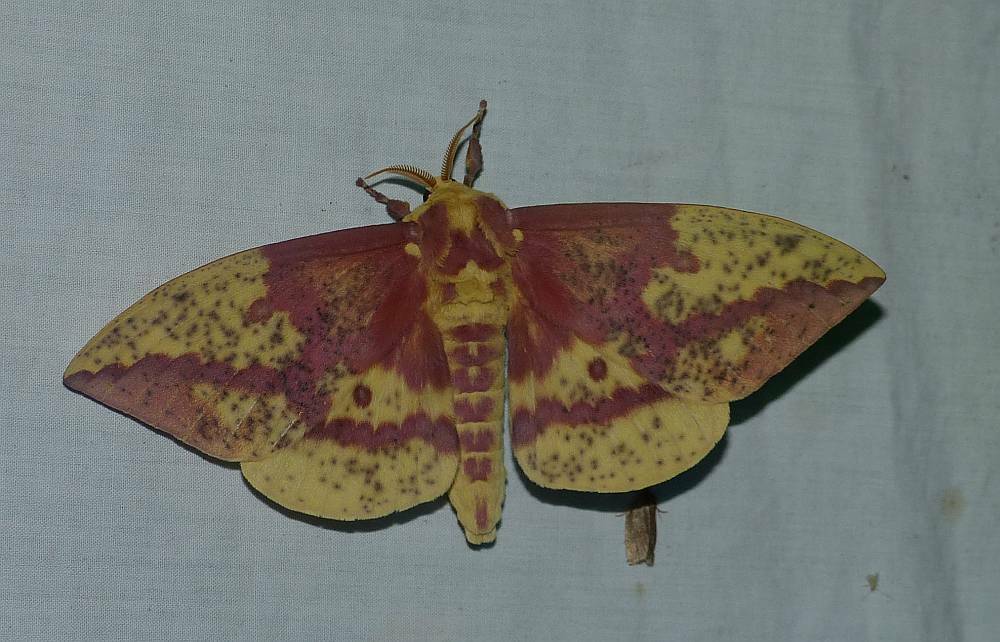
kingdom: Animalia
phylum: Arthropoda
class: Insecta
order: Lepidoptera
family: Saturniidae
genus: Eacles
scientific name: Eacles
